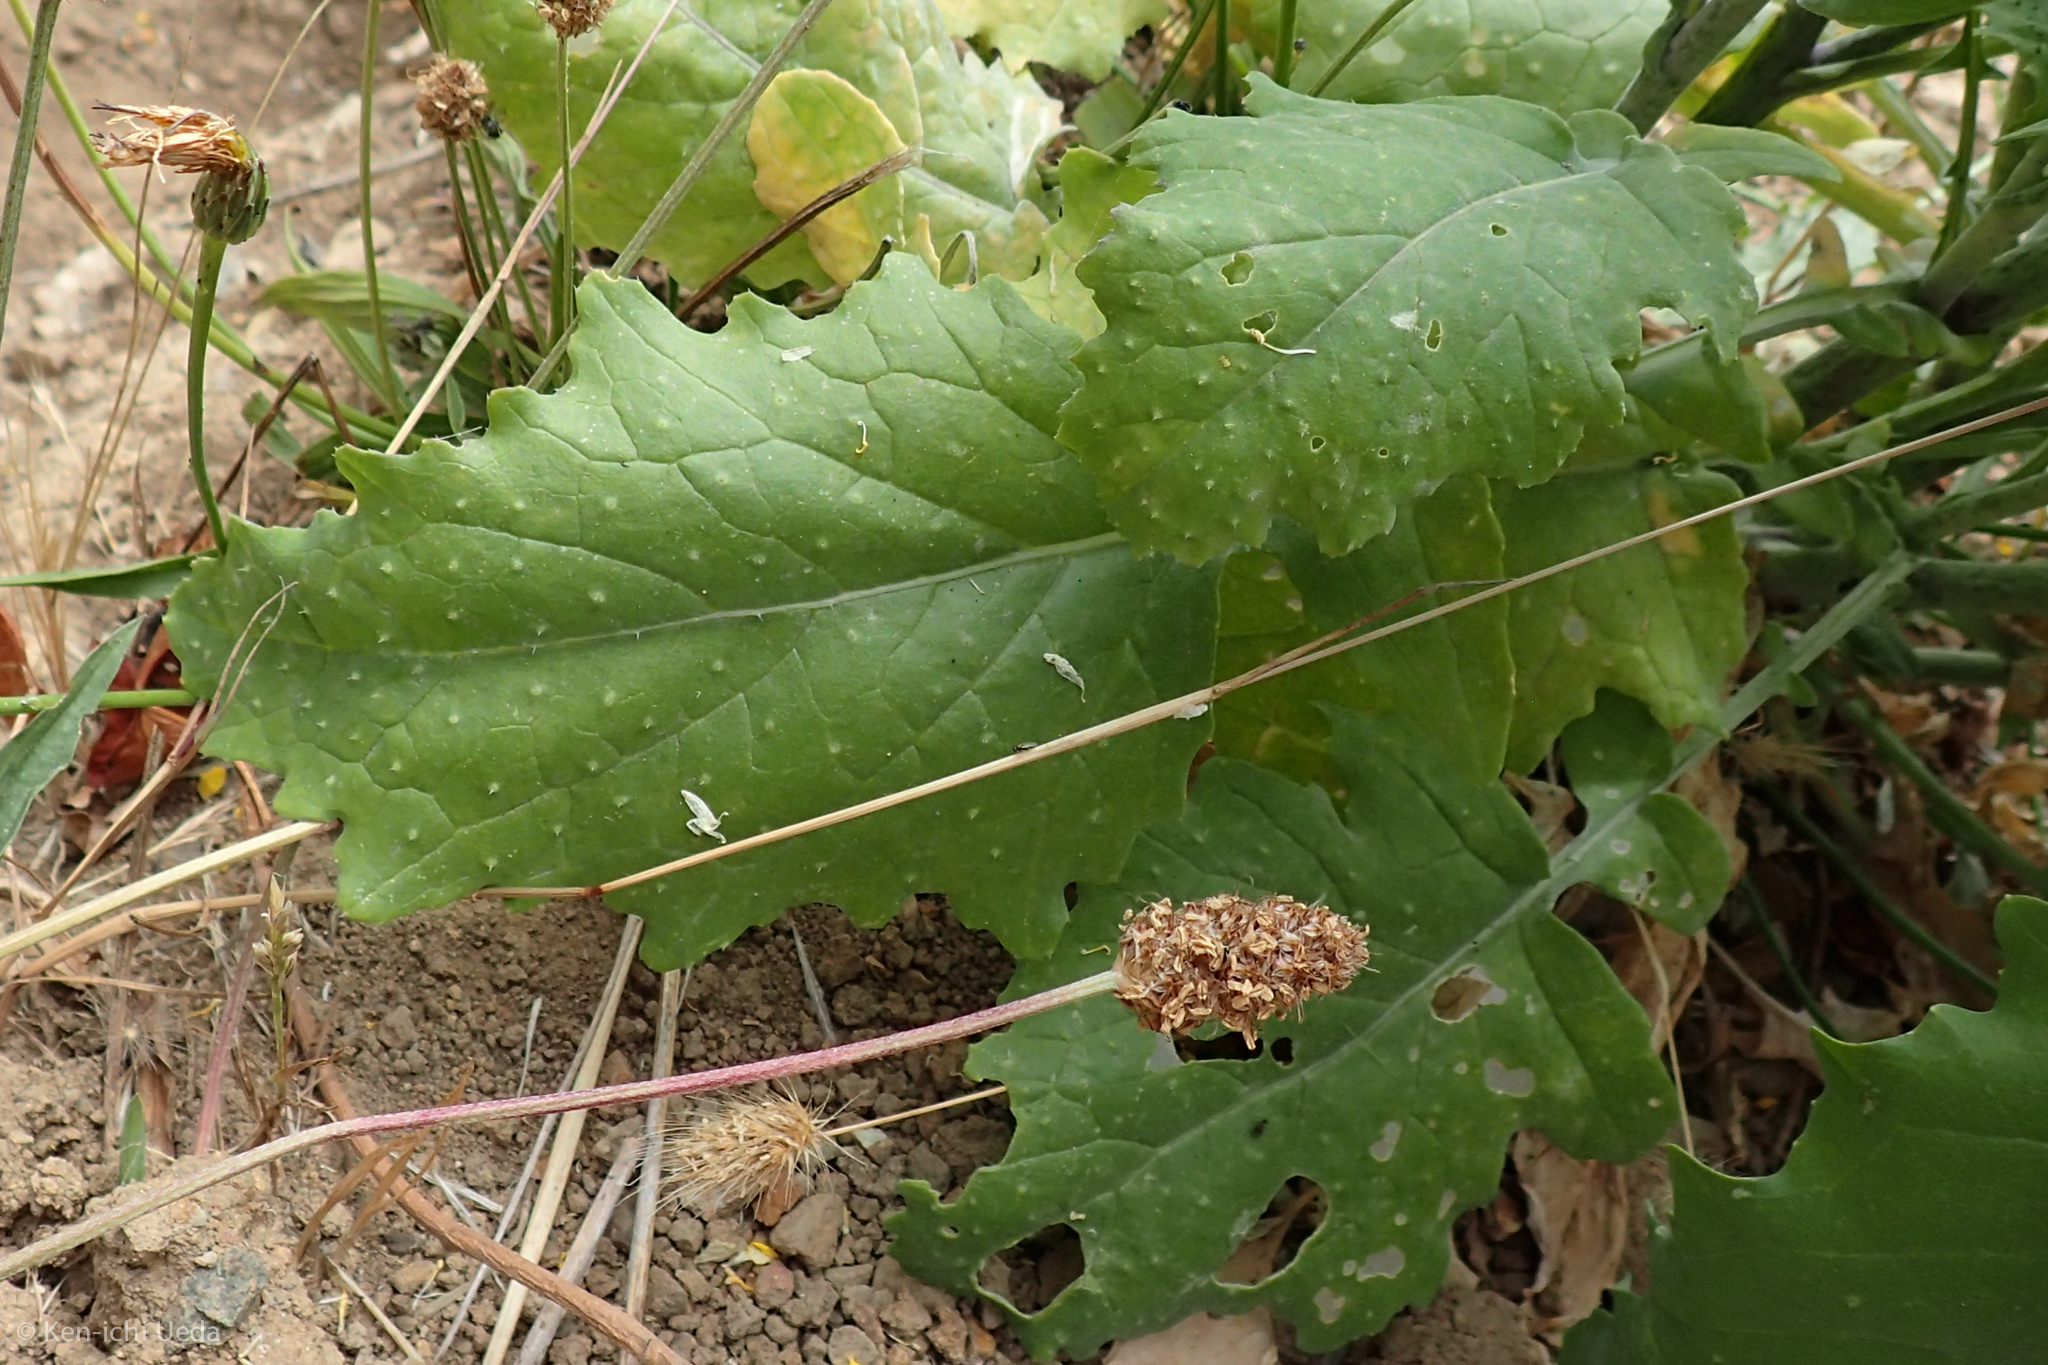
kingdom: Plantae
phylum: Tracheophyta
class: Magnoliopsida
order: Brassicales
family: Brassicaceae
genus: Brassica
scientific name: Brassica rapa
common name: Field mustard
